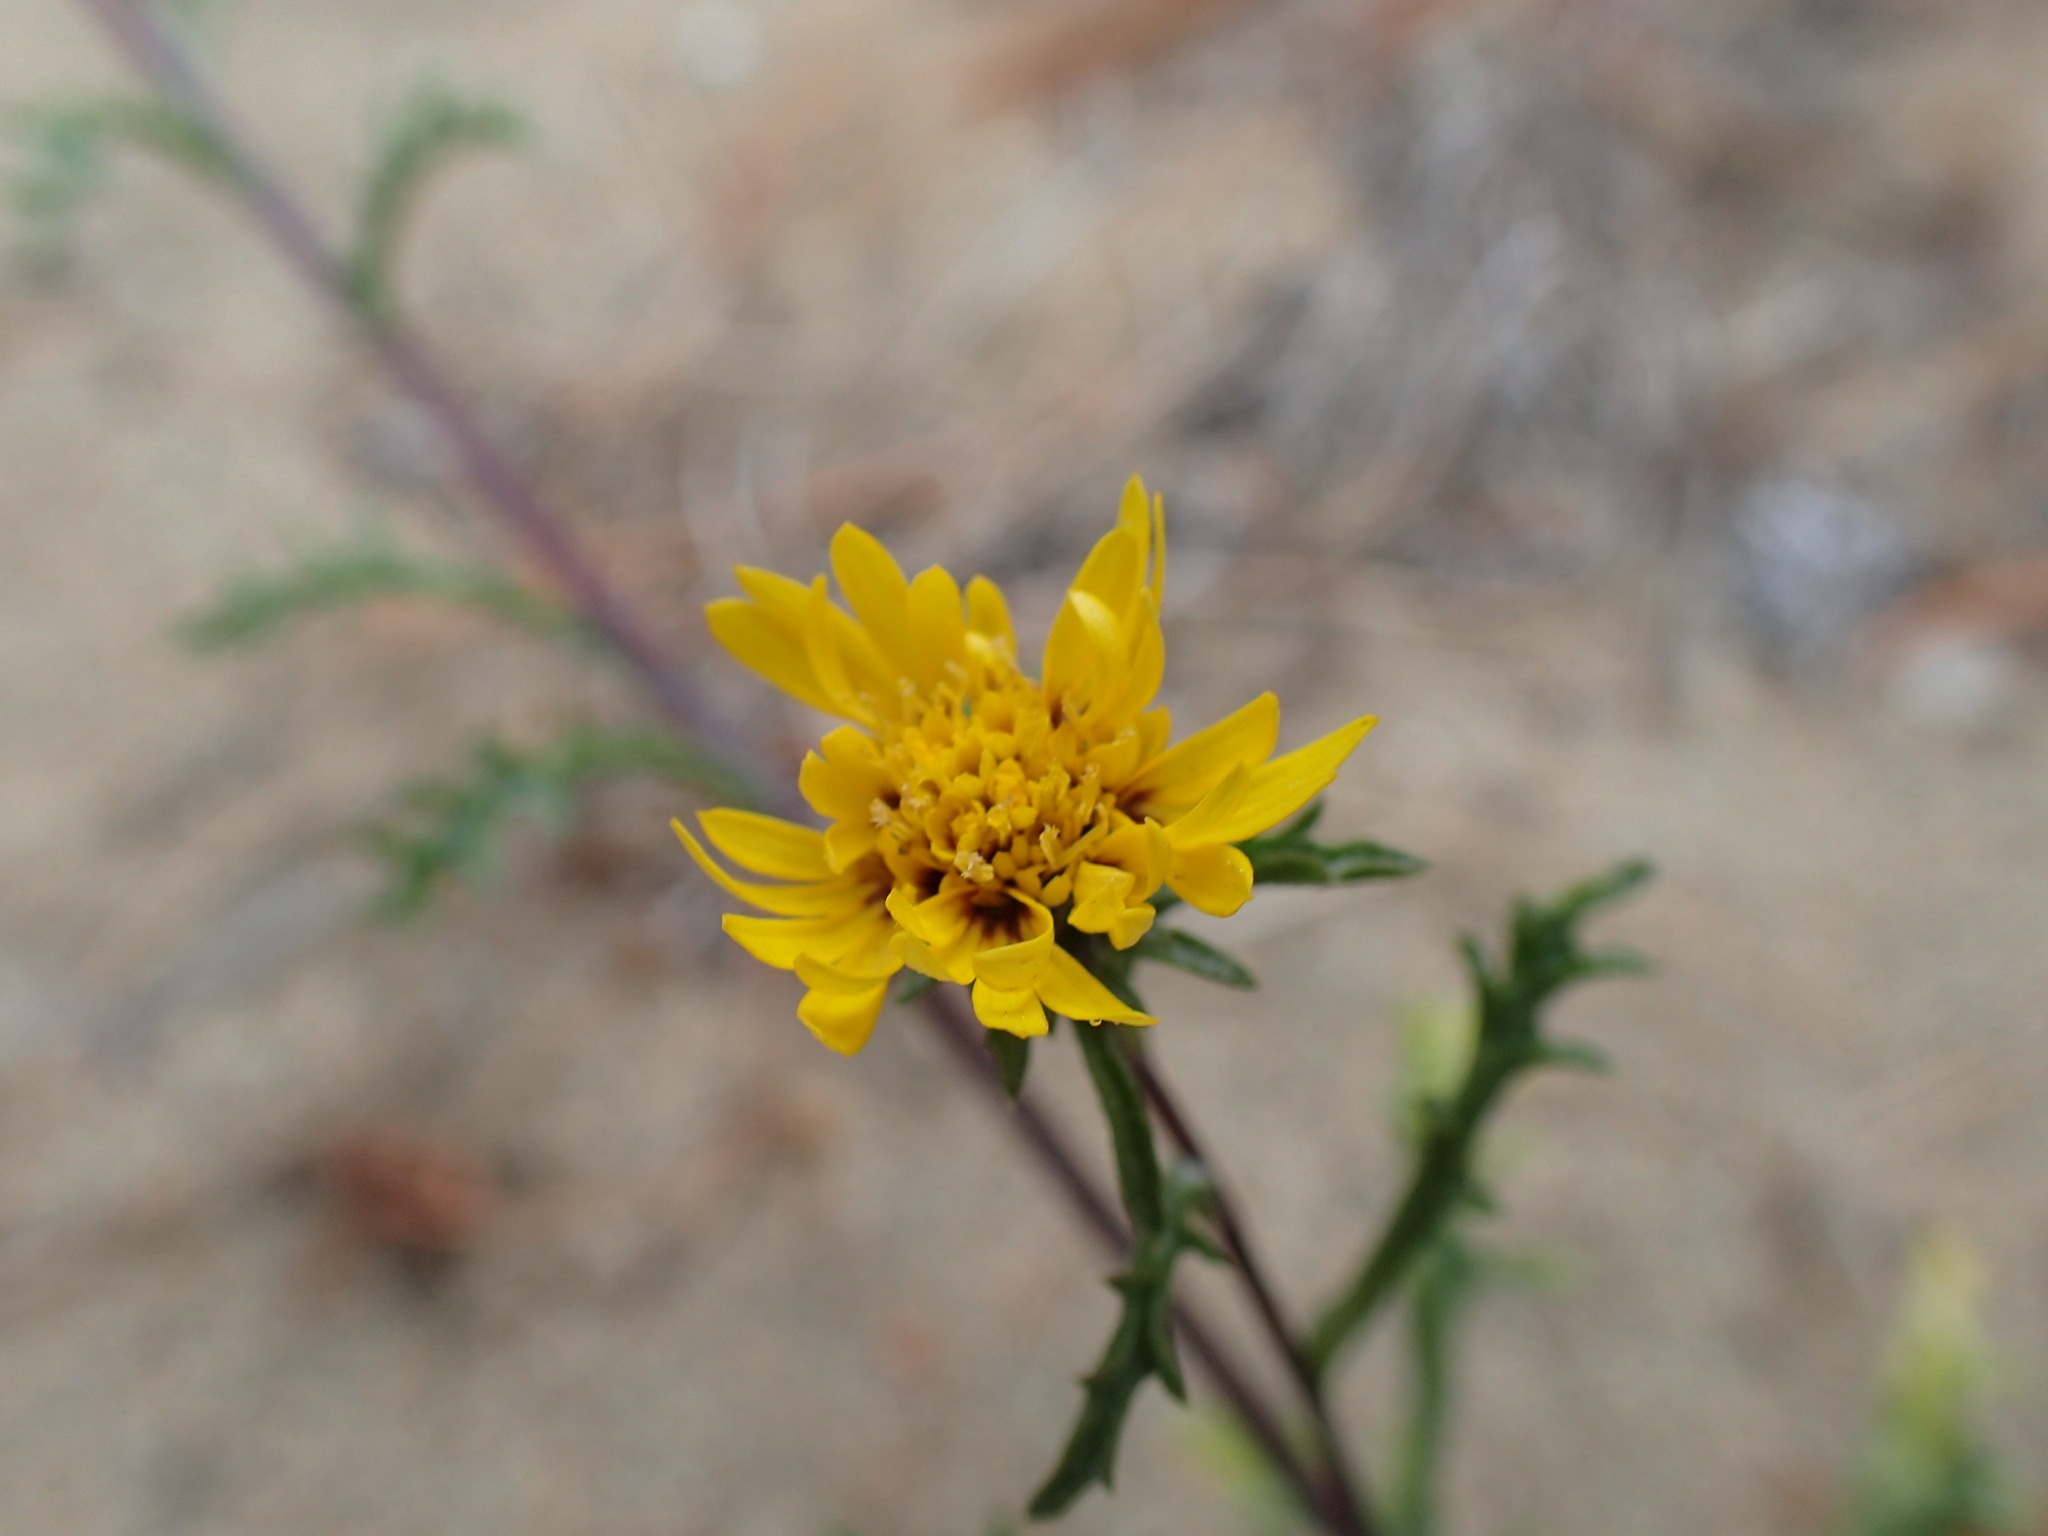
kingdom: Plantae
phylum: Tracheophyta
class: Magnoliopsida
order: Asterales
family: Asteraceae
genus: Lessingia
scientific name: Lessingia germanorum
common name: San francisco lessingia
